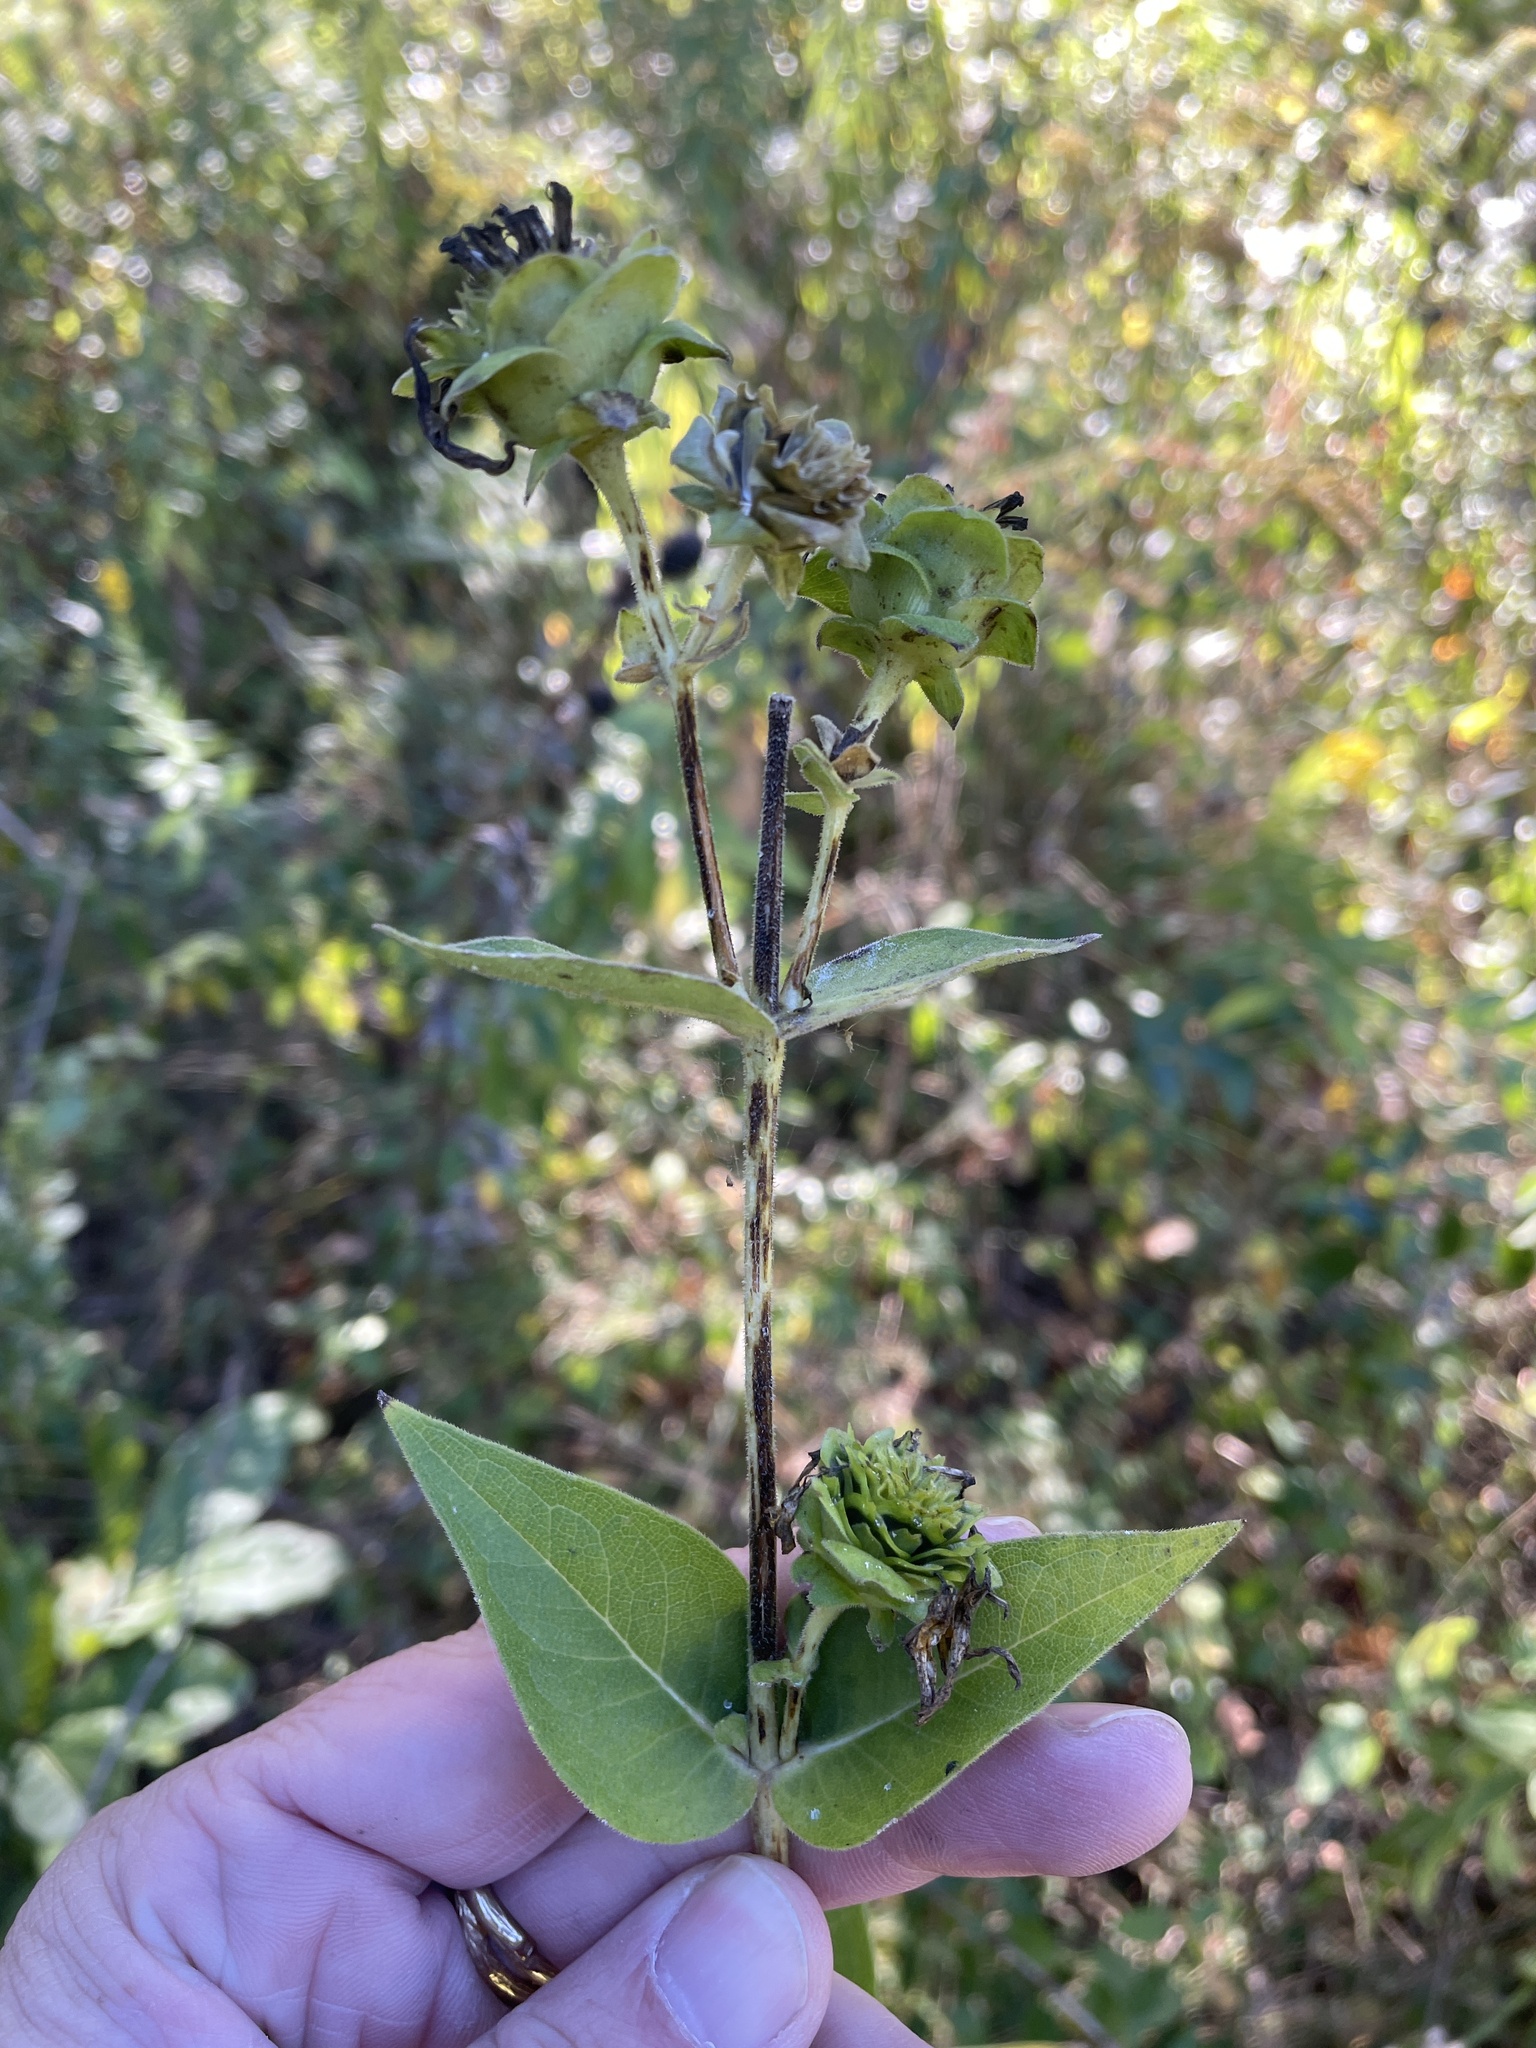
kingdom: Plantae
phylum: Tracheophyta
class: Magnoliopsida
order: Asterales
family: Asteraceae
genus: Silphium
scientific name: Silphium integrifolium
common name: Whole-leaf rosinweed
